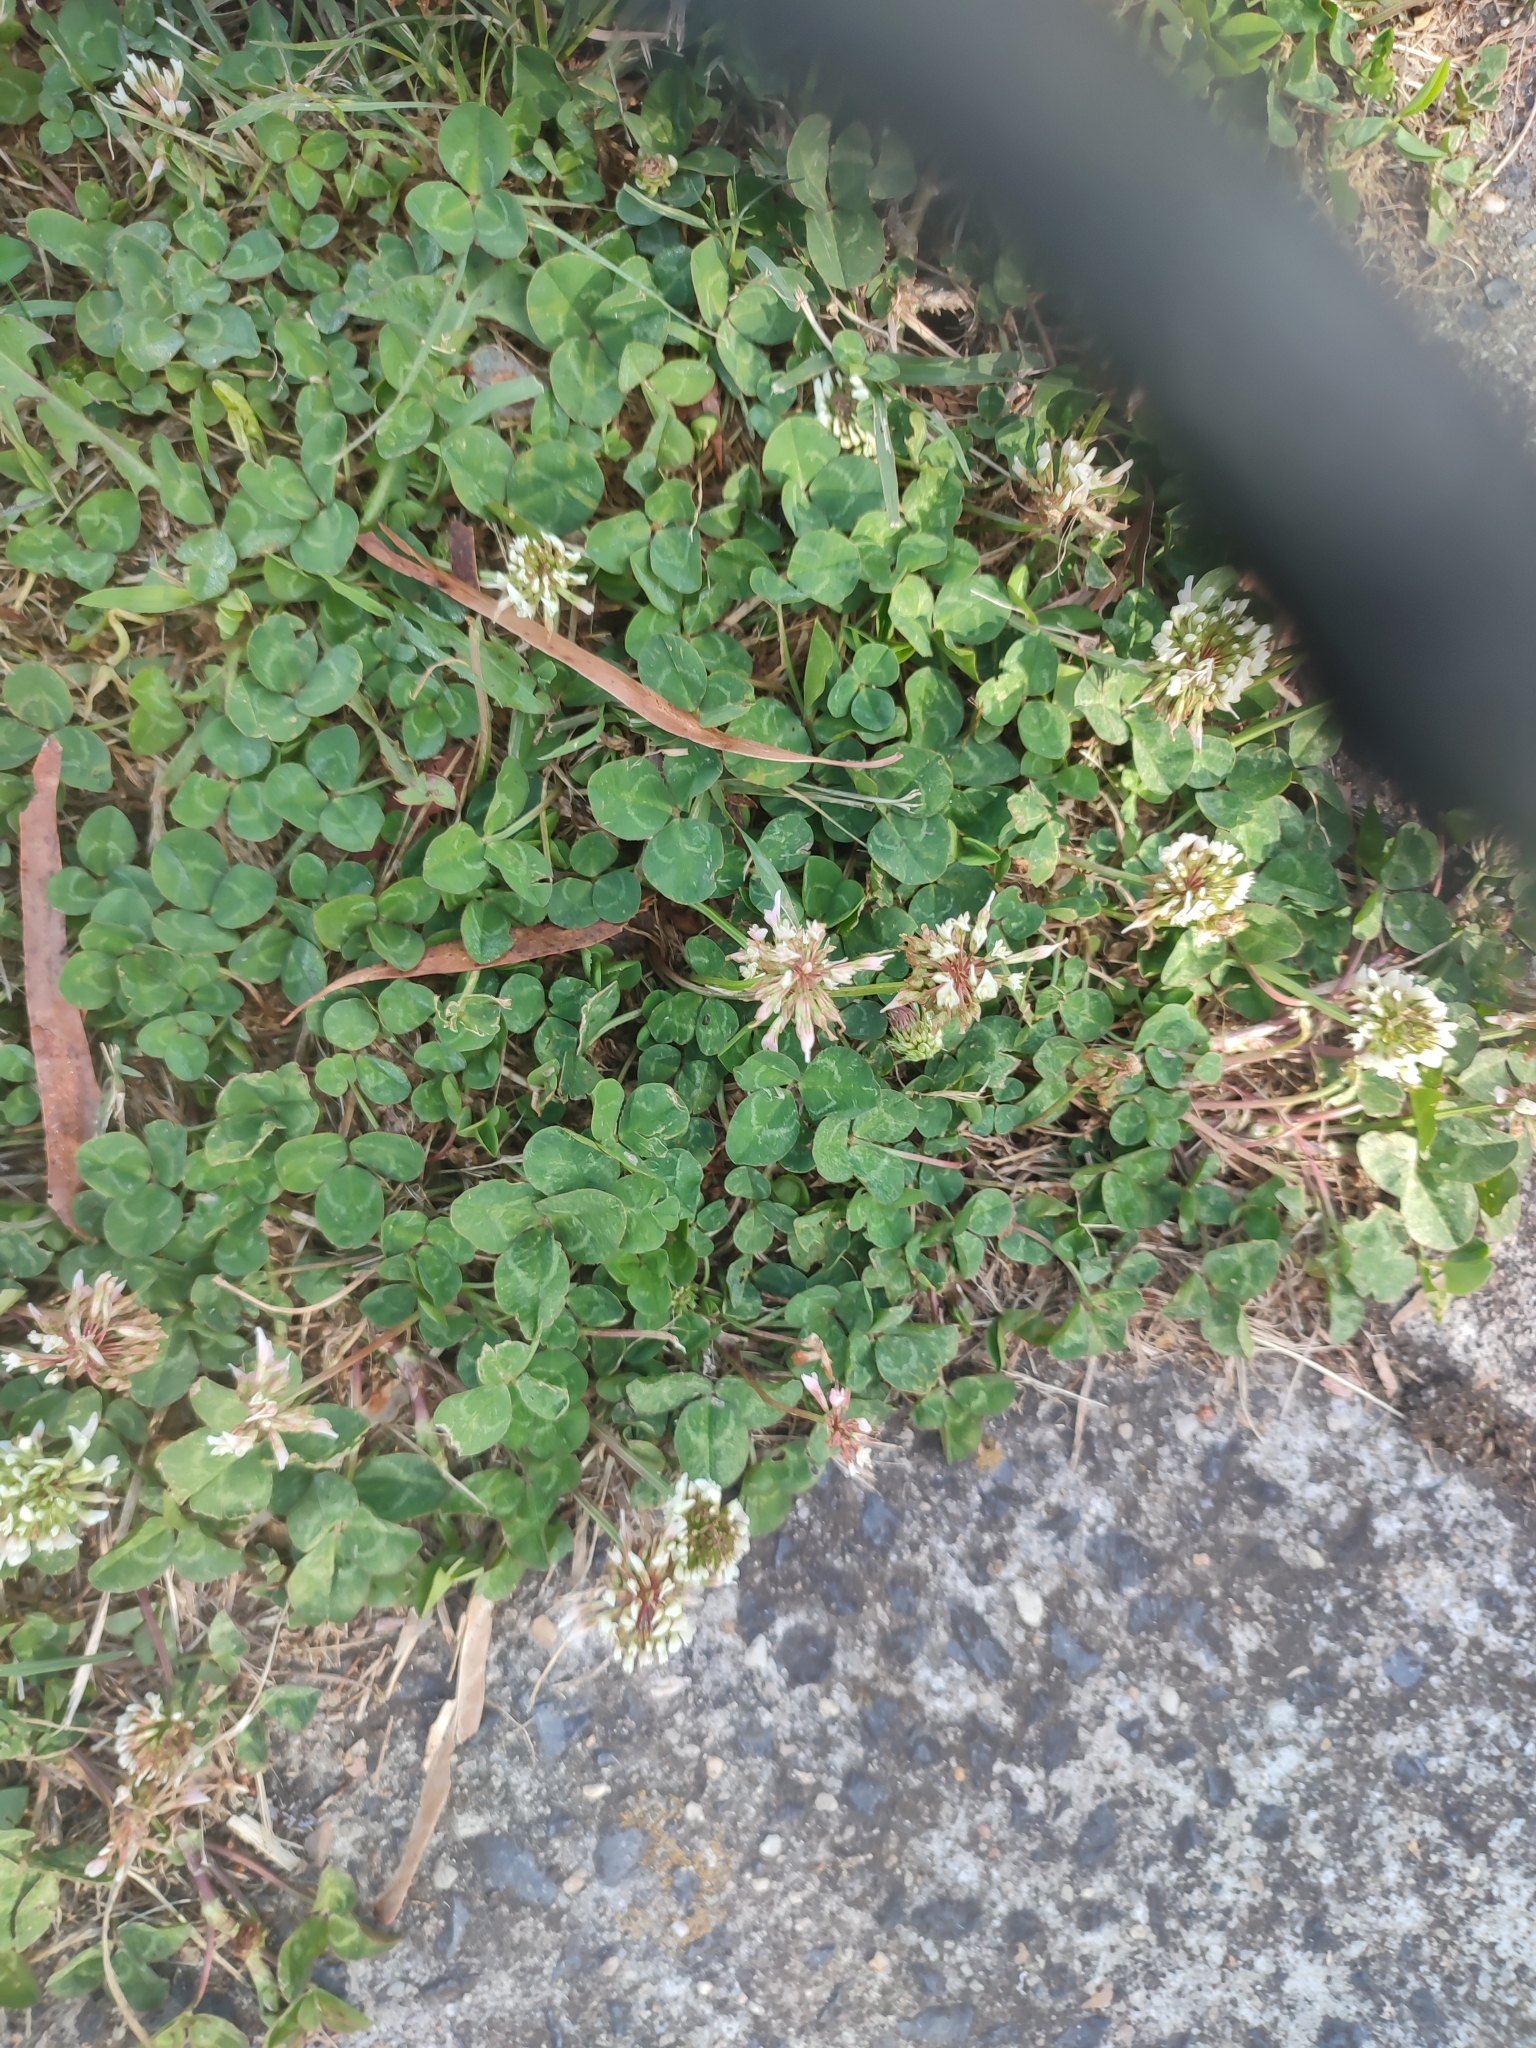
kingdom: Plantae
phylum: Tracheophyta
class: Magnoliopsida
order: Fabales
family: Fabaceae
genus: Trifolium
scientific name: Trifolium repens
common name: White clover
